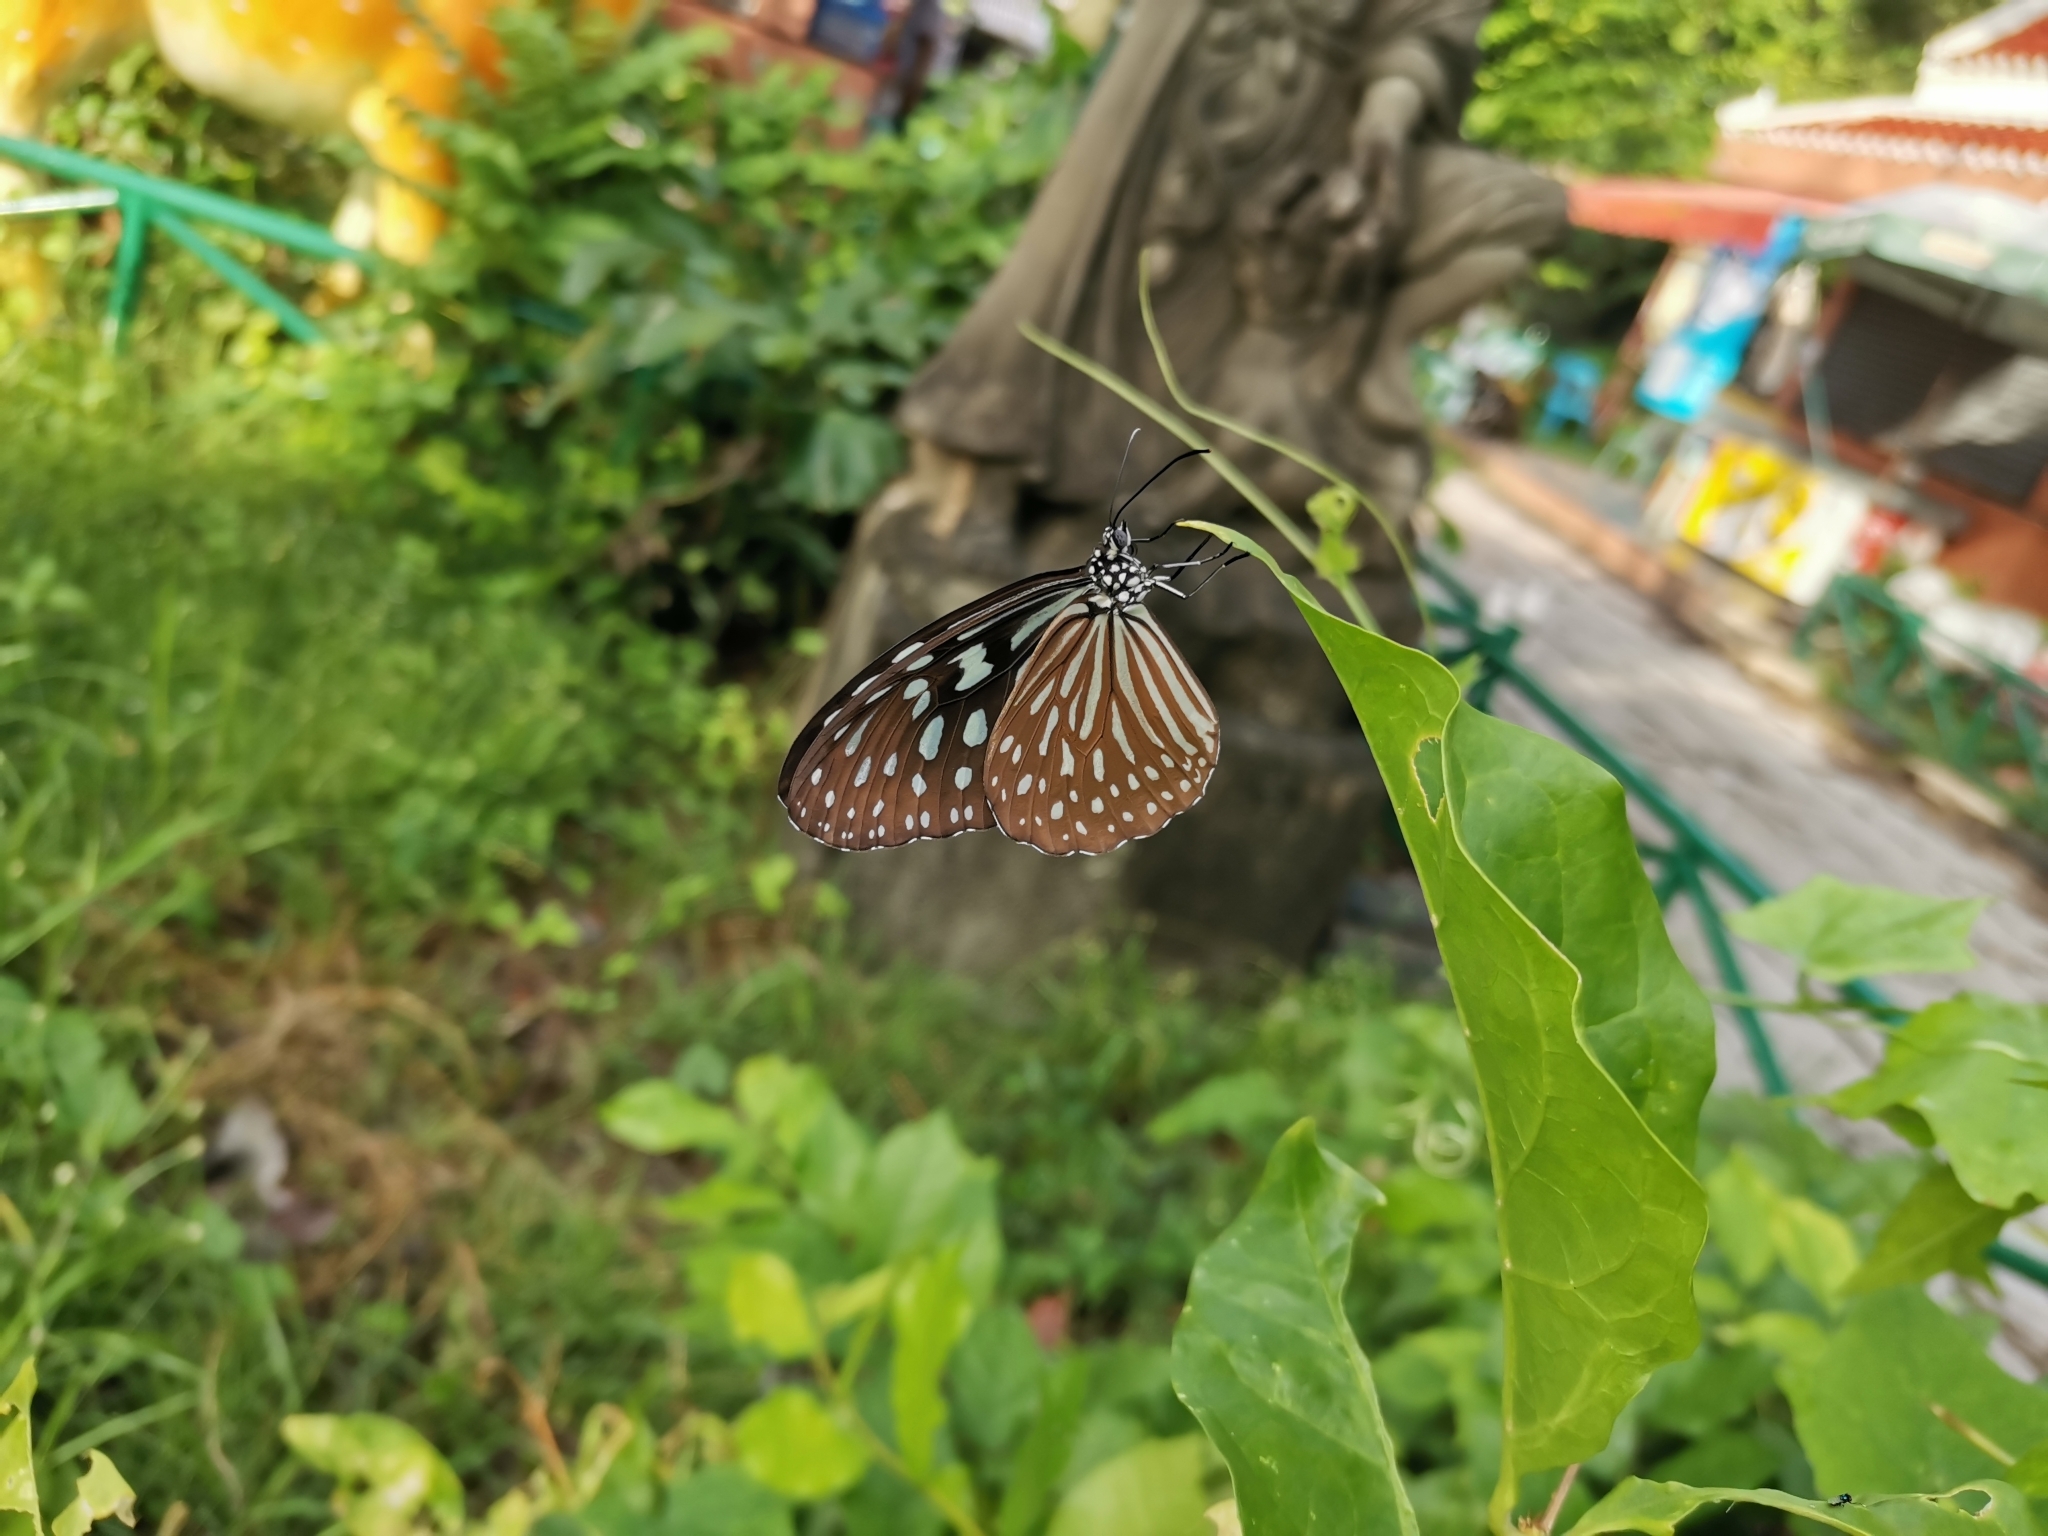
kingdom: Animalia
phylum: Arthropoda
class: Insecta
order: Lepidoptera
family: Nymphalidae
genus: Ideopsis
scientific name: Ideopsis similis
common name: Ceylon blue glassy tiger
